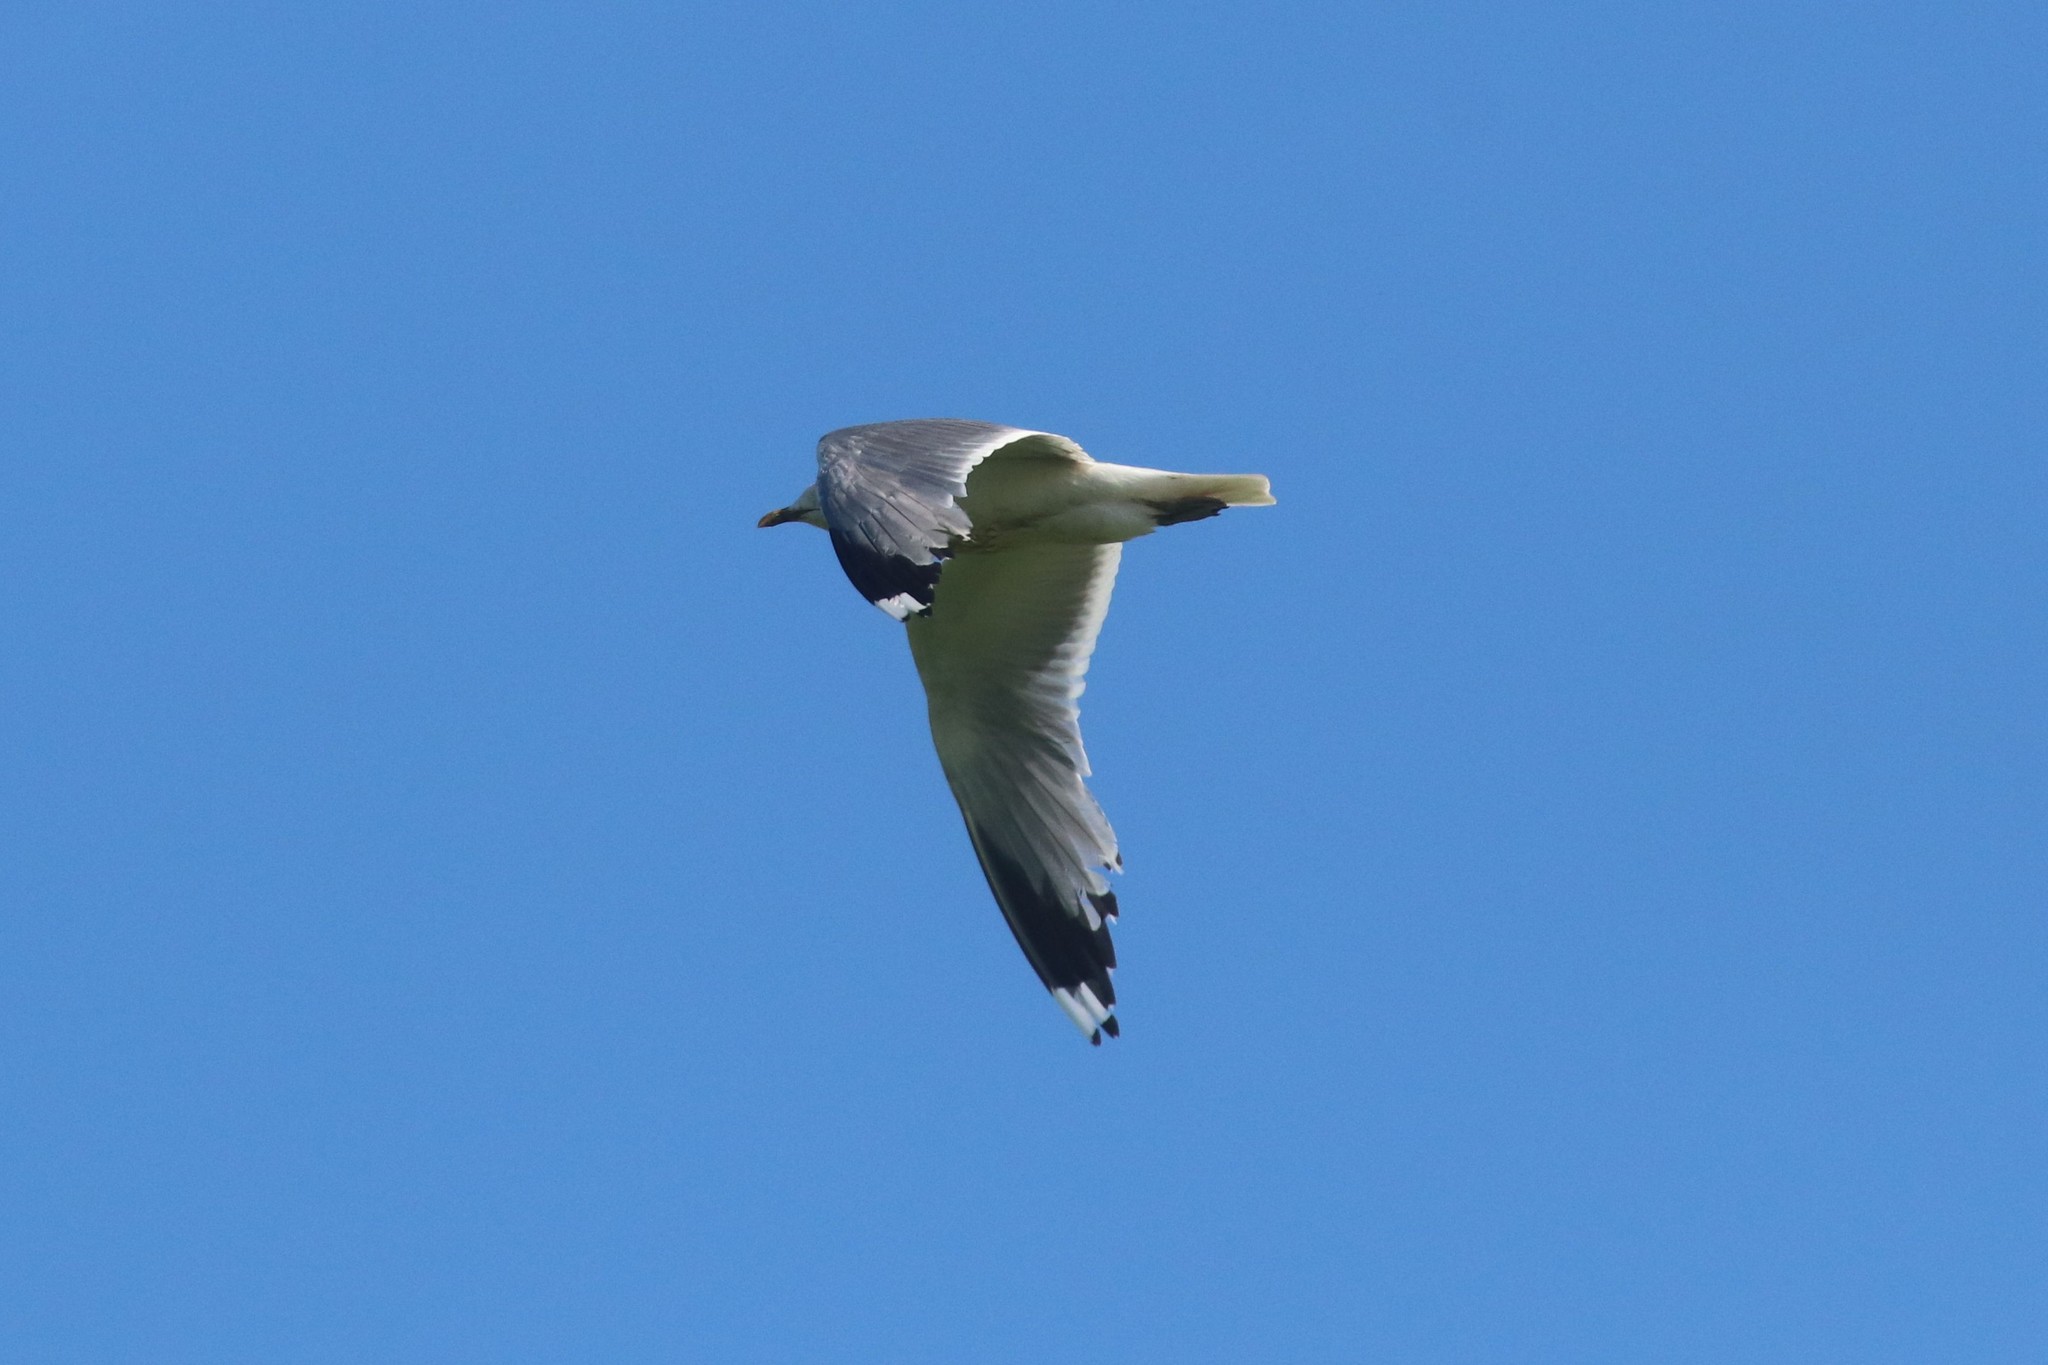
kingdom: Animalia
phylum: Chordata
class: Aves
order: Charadriiformes
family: Laridae
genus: Larus
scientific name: Larus canus
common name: Mew gull
